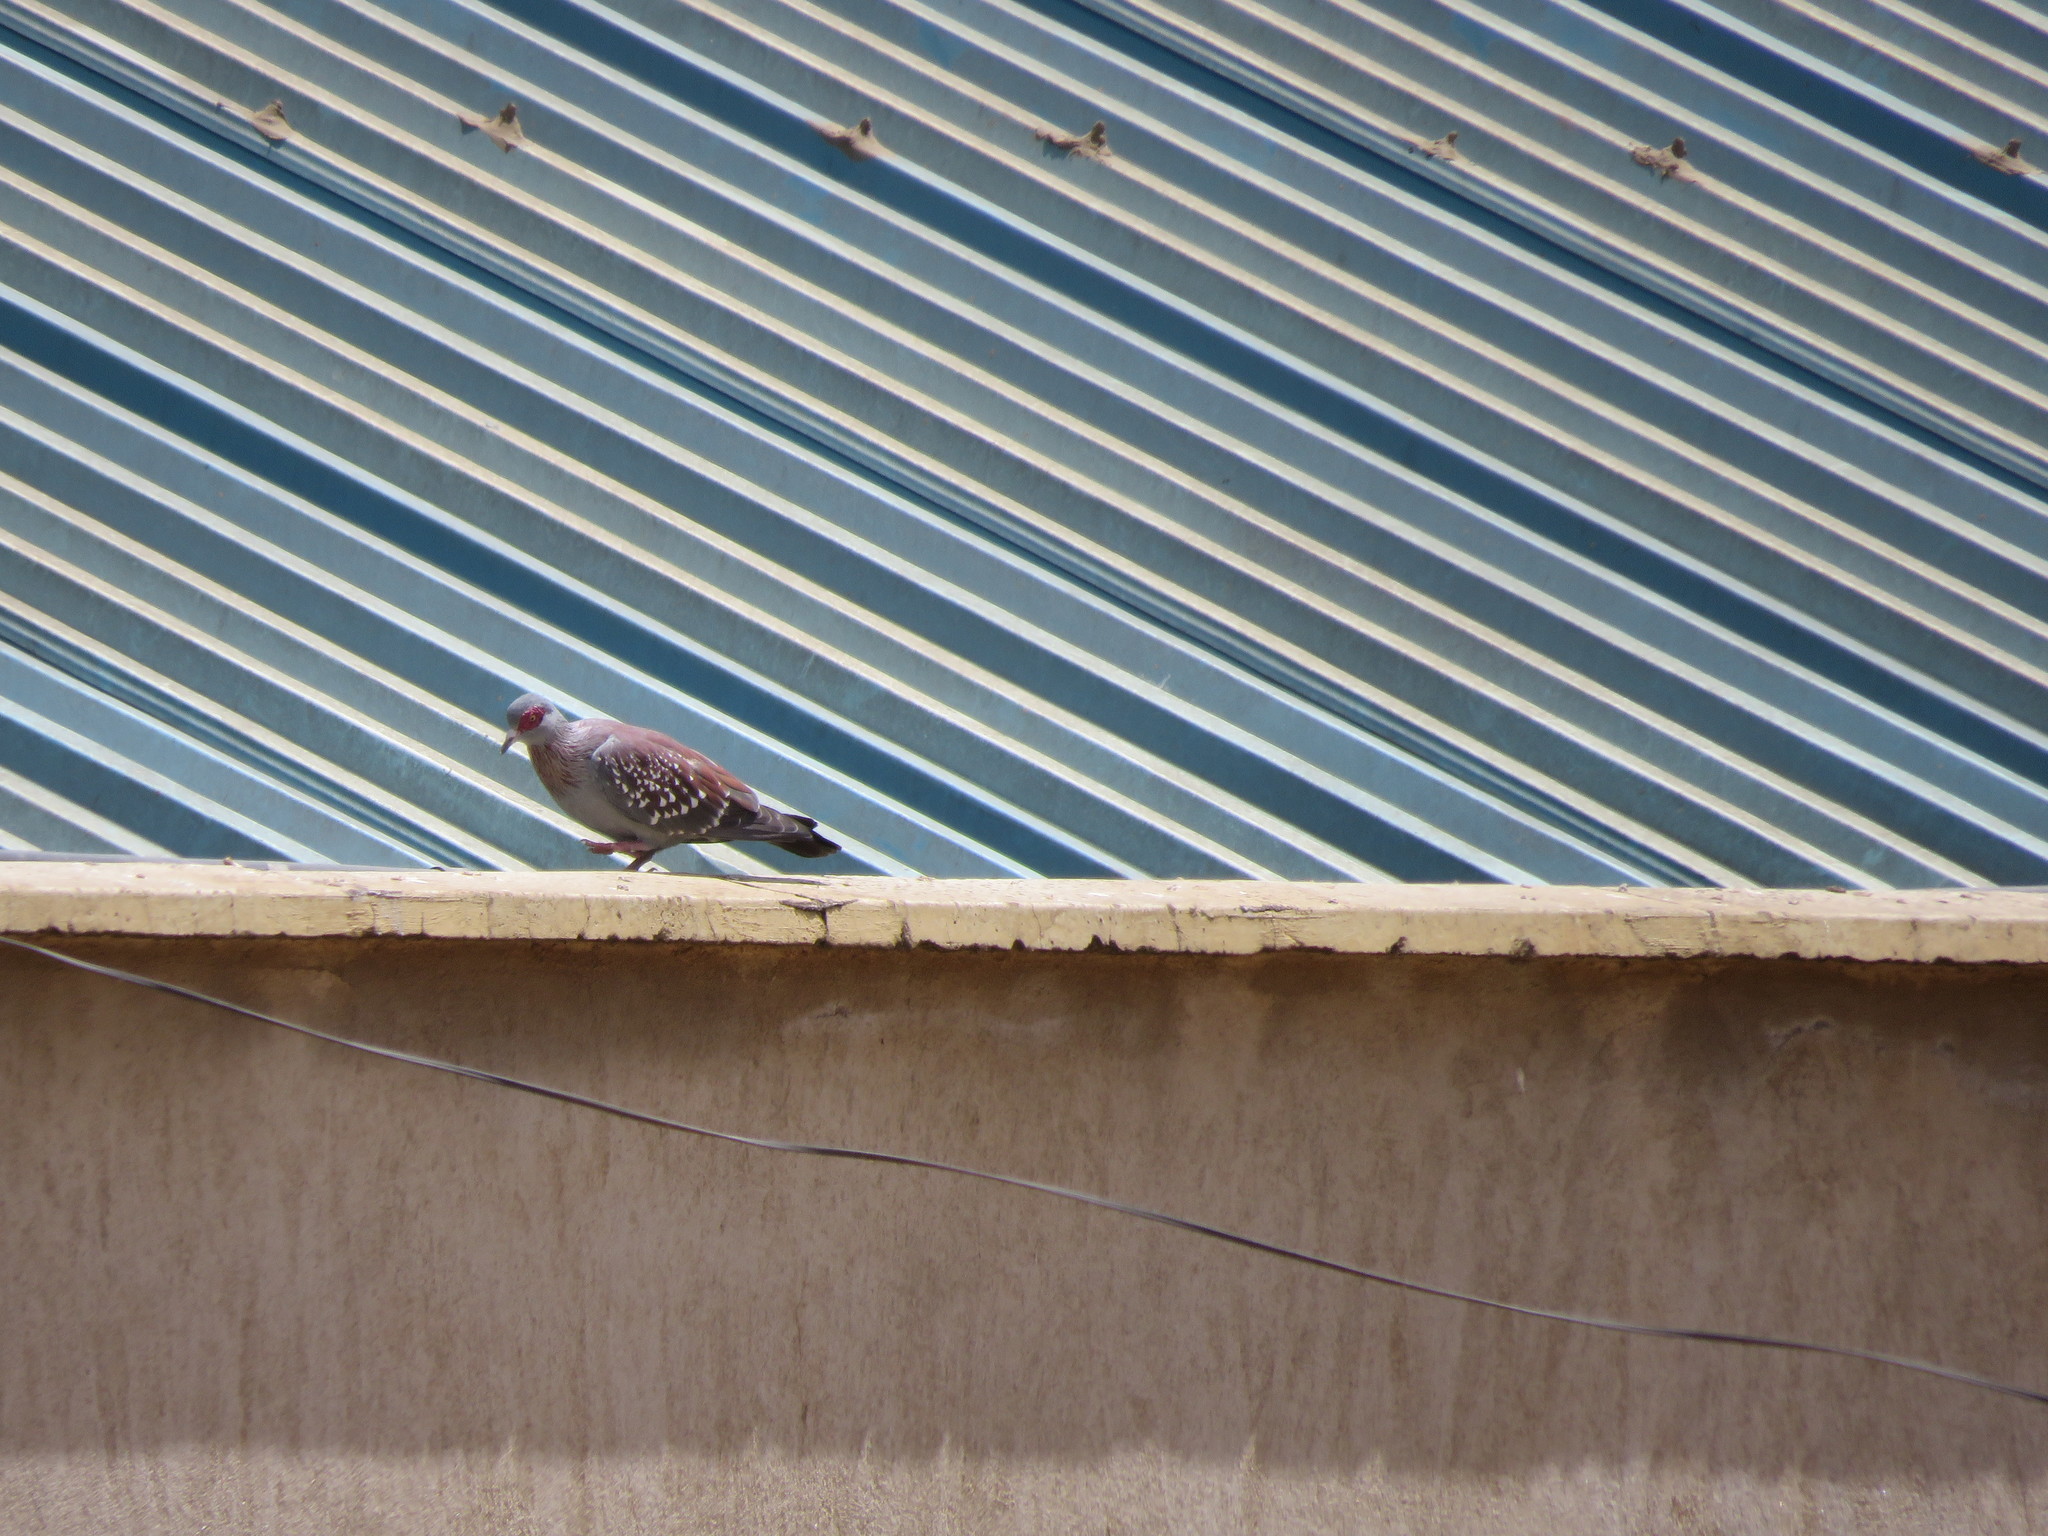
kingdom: Animalia
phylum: Chordata
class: Aves
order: Columbiformes
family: Columbidae
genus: Columba
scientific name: Columba guinea
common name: Speckled pigeon
